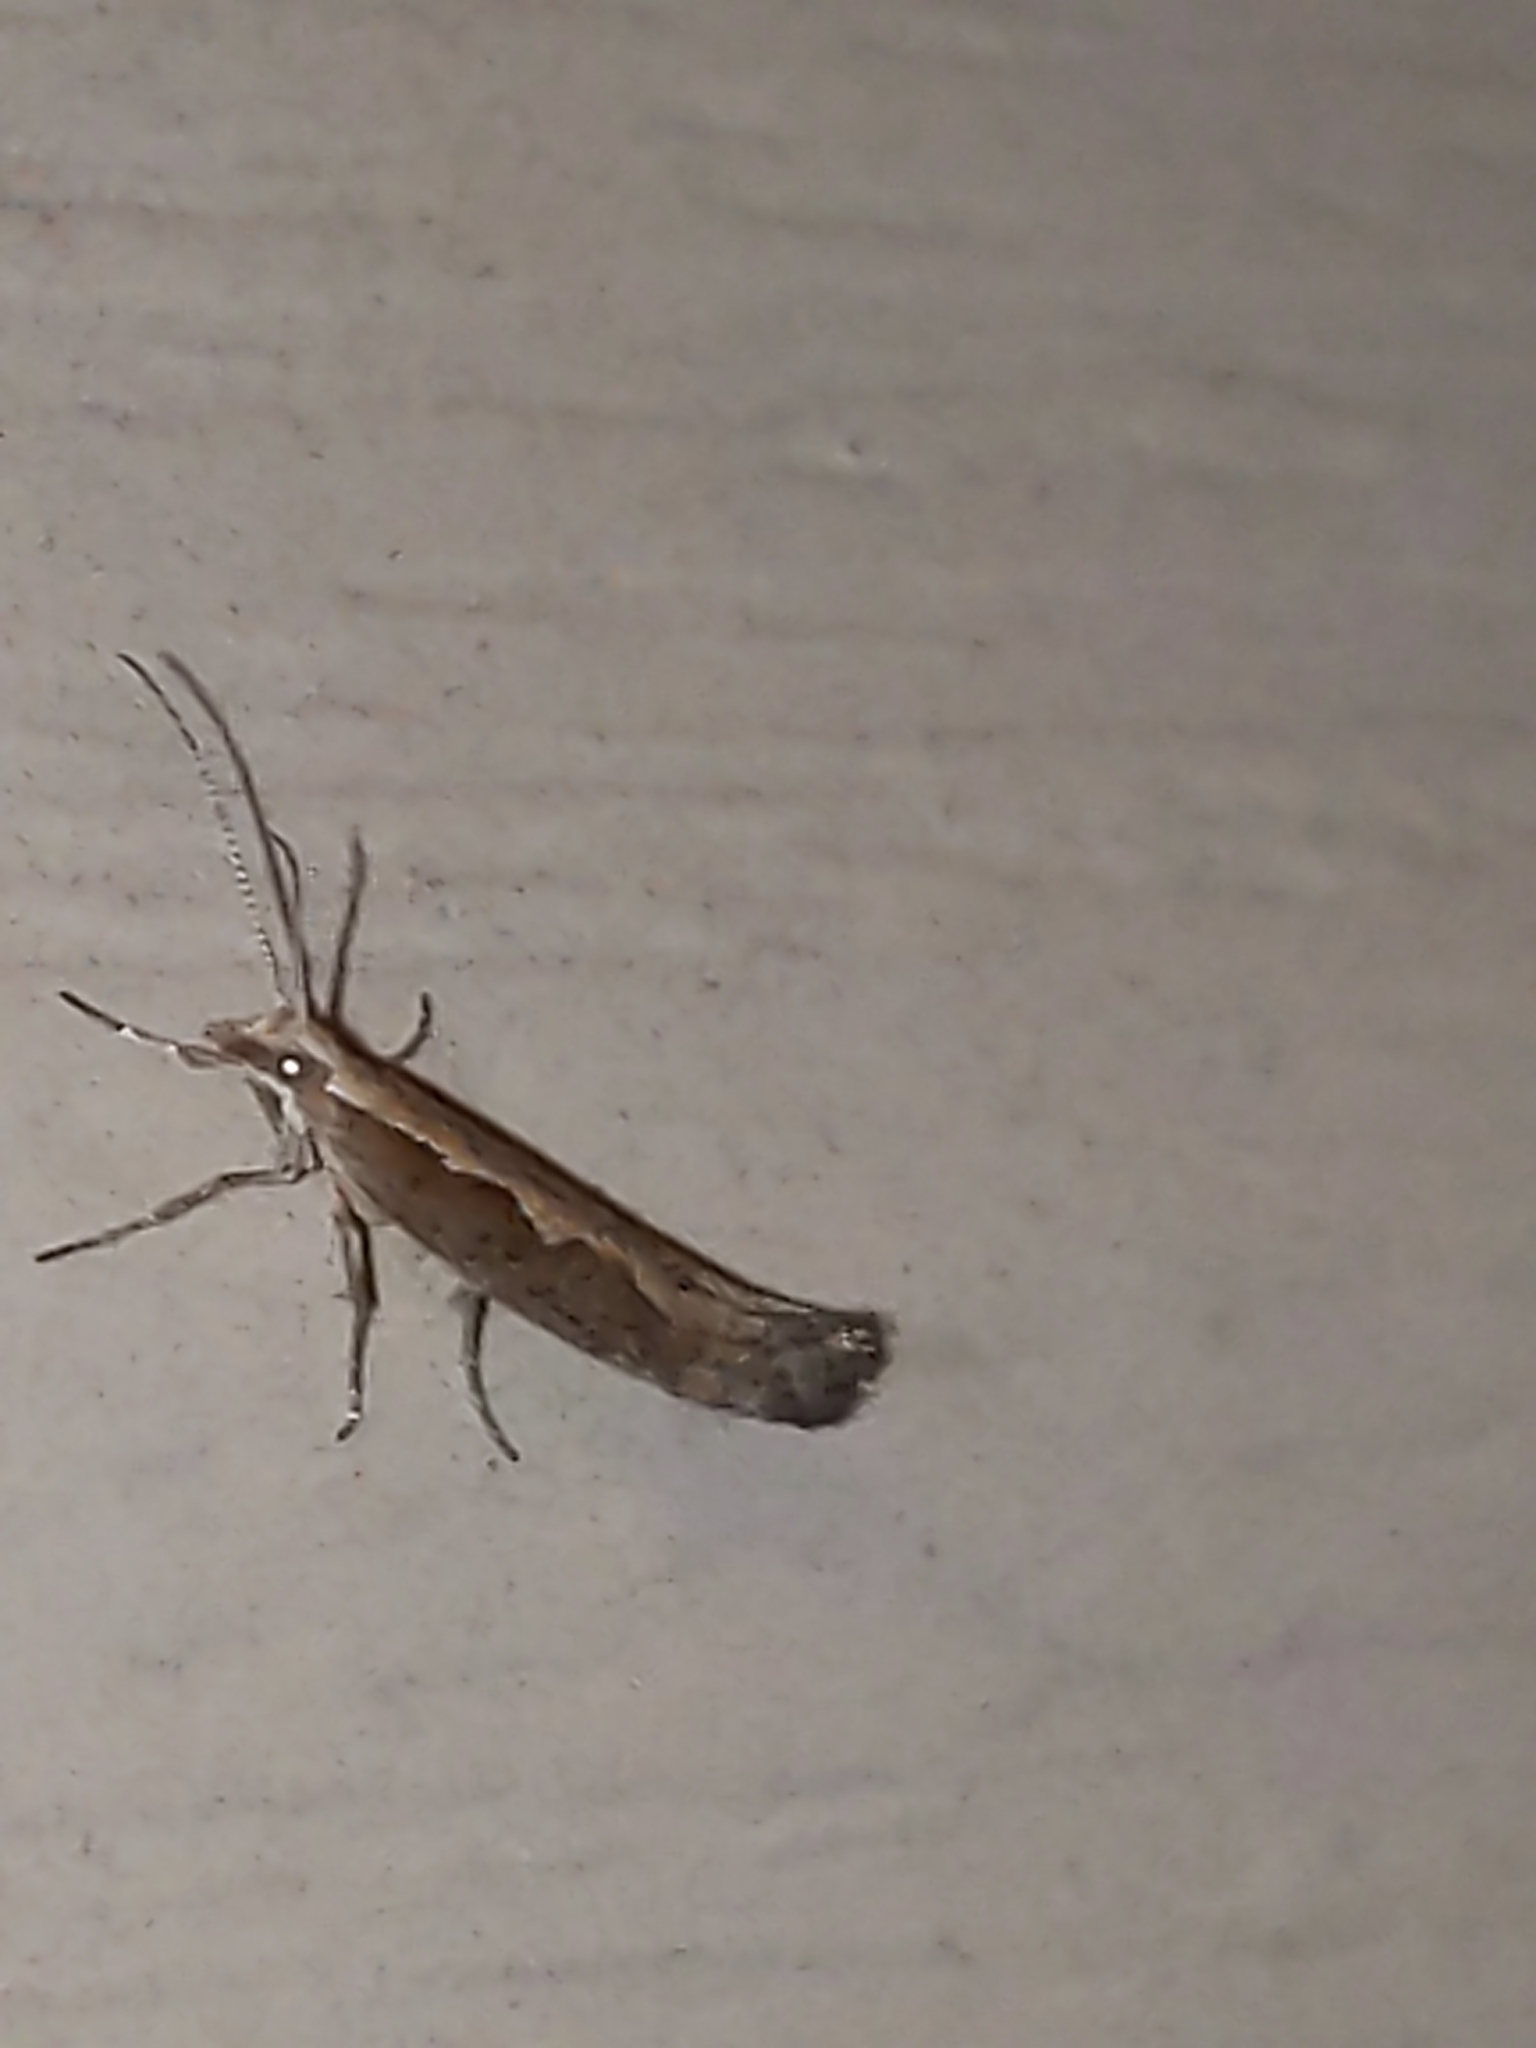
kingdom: Animalia
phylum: Arthropoda
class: Insecta
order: Lepidoptera
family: Plutellidae
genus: Plutella
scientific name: Plutella xylostella
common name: Diamond-back moth
